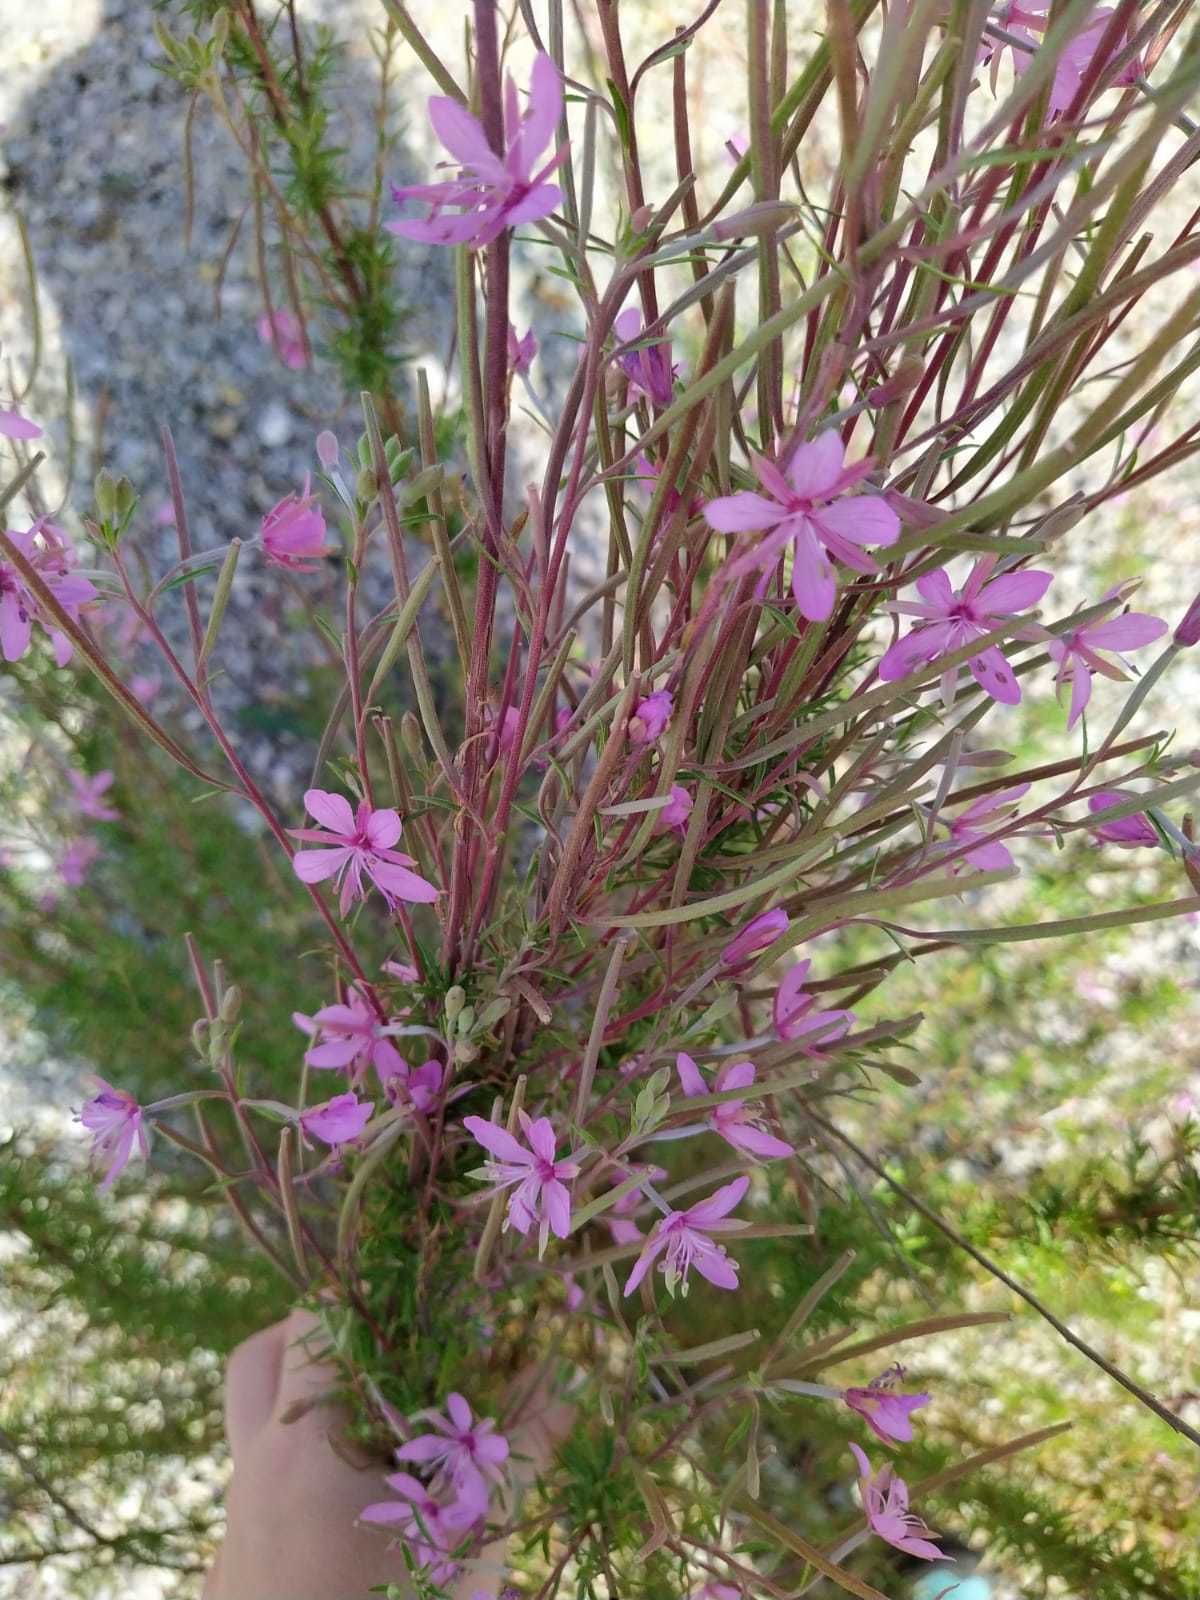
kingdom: Plantae
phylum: Tracheophyta
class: Magnoliopsida
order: Myrtales
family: Onagraceae
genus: Chamaenerion
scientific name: Chamaenerion dodonaei
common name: Rosemary-leaved willowherb
